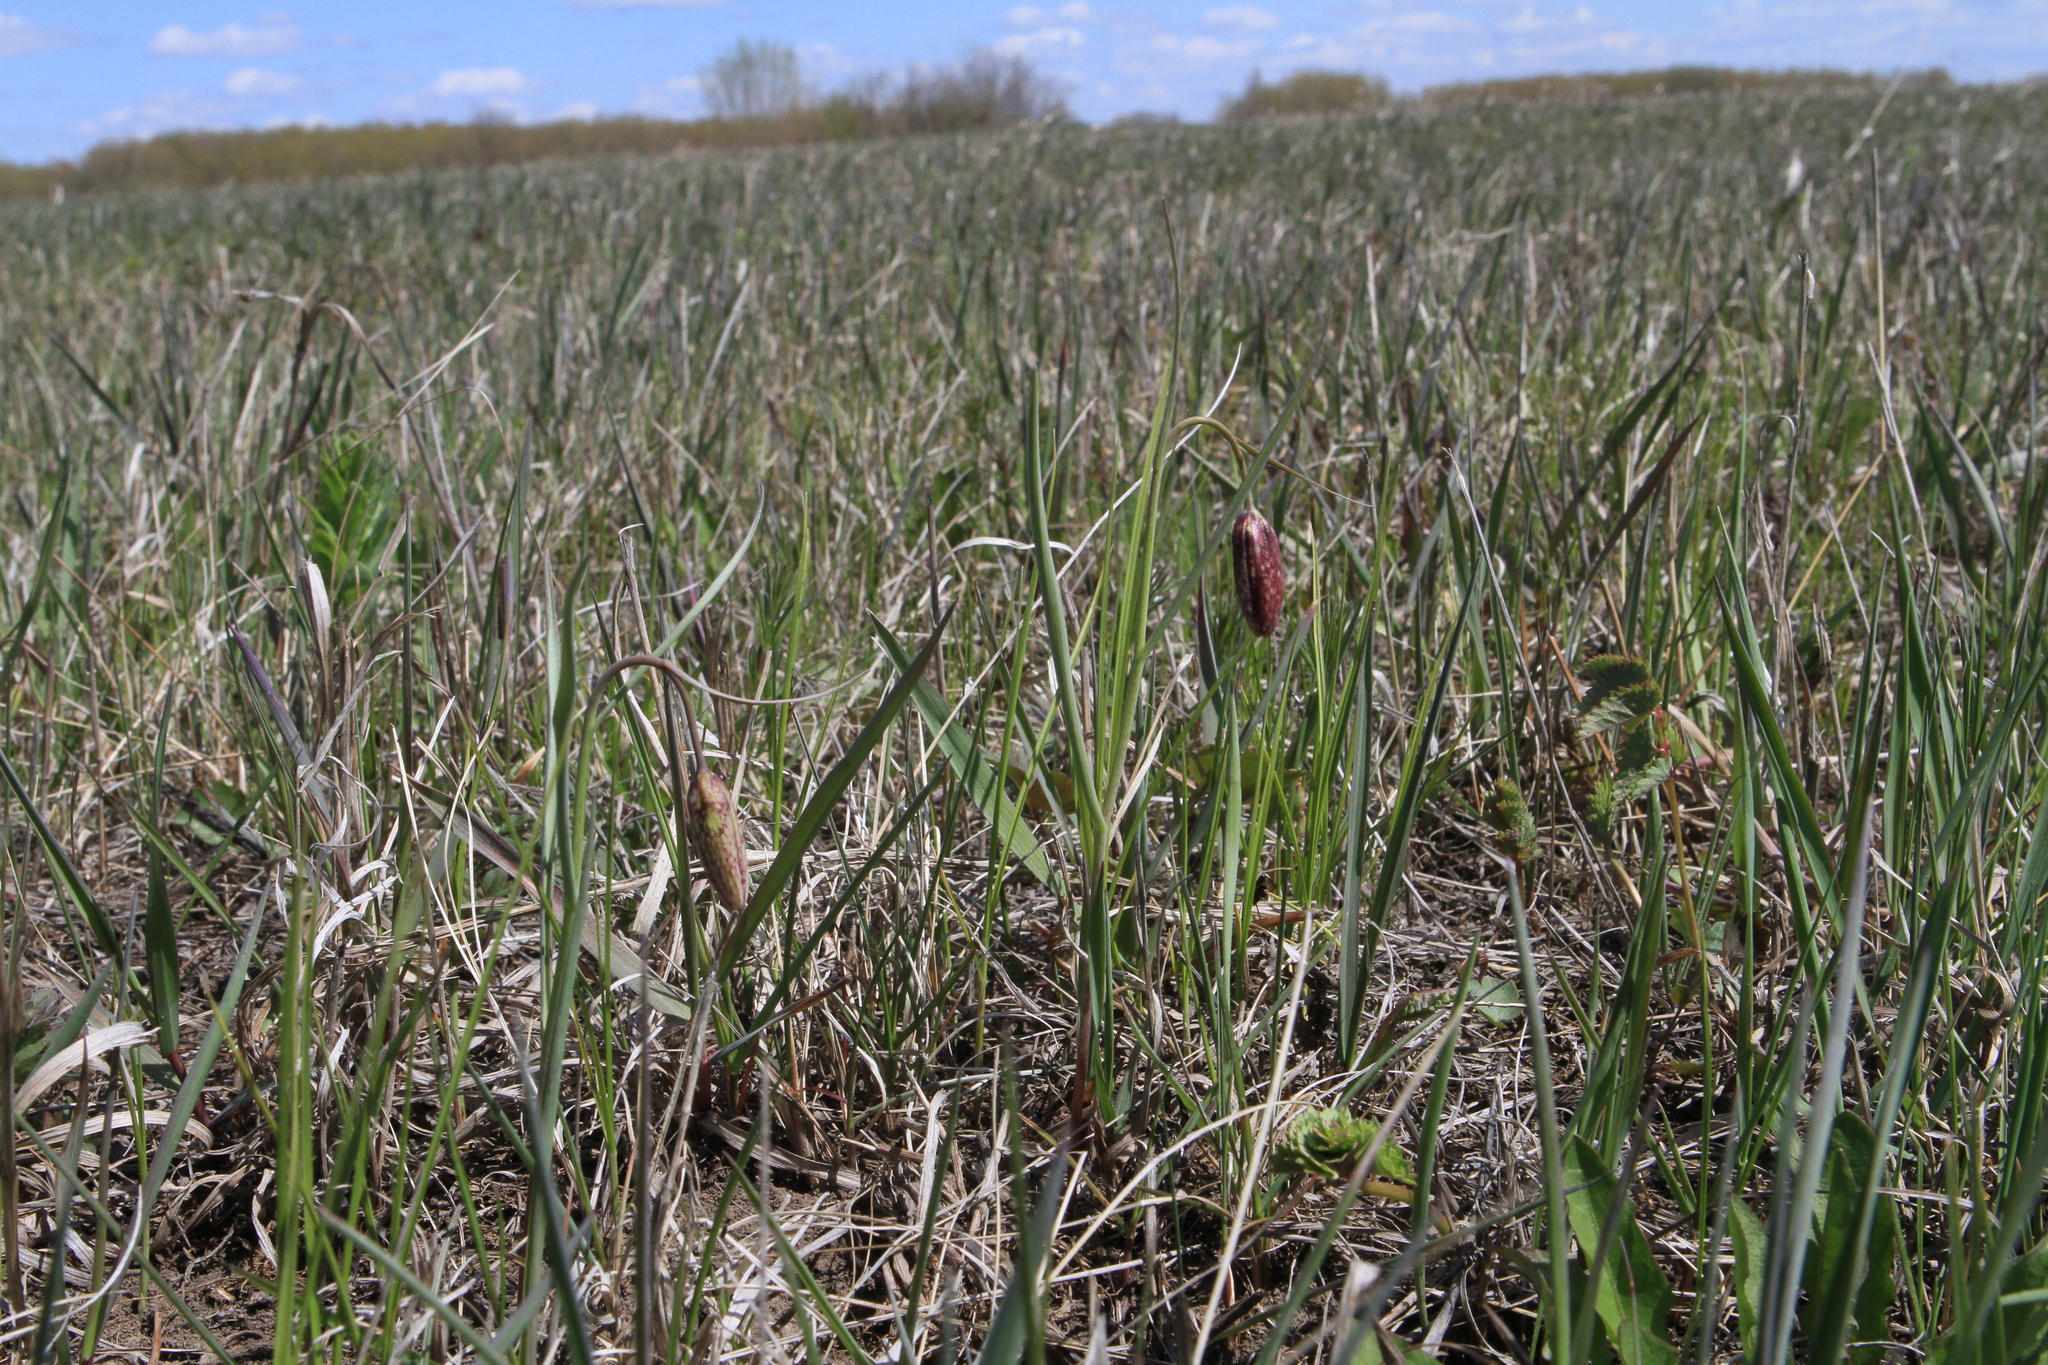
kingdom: Plantae
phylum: Tracheophyta
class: Liliopsida
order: Liliales
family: Liliaceae
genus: Fritillaria
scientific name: Fritillaria meleagroides
